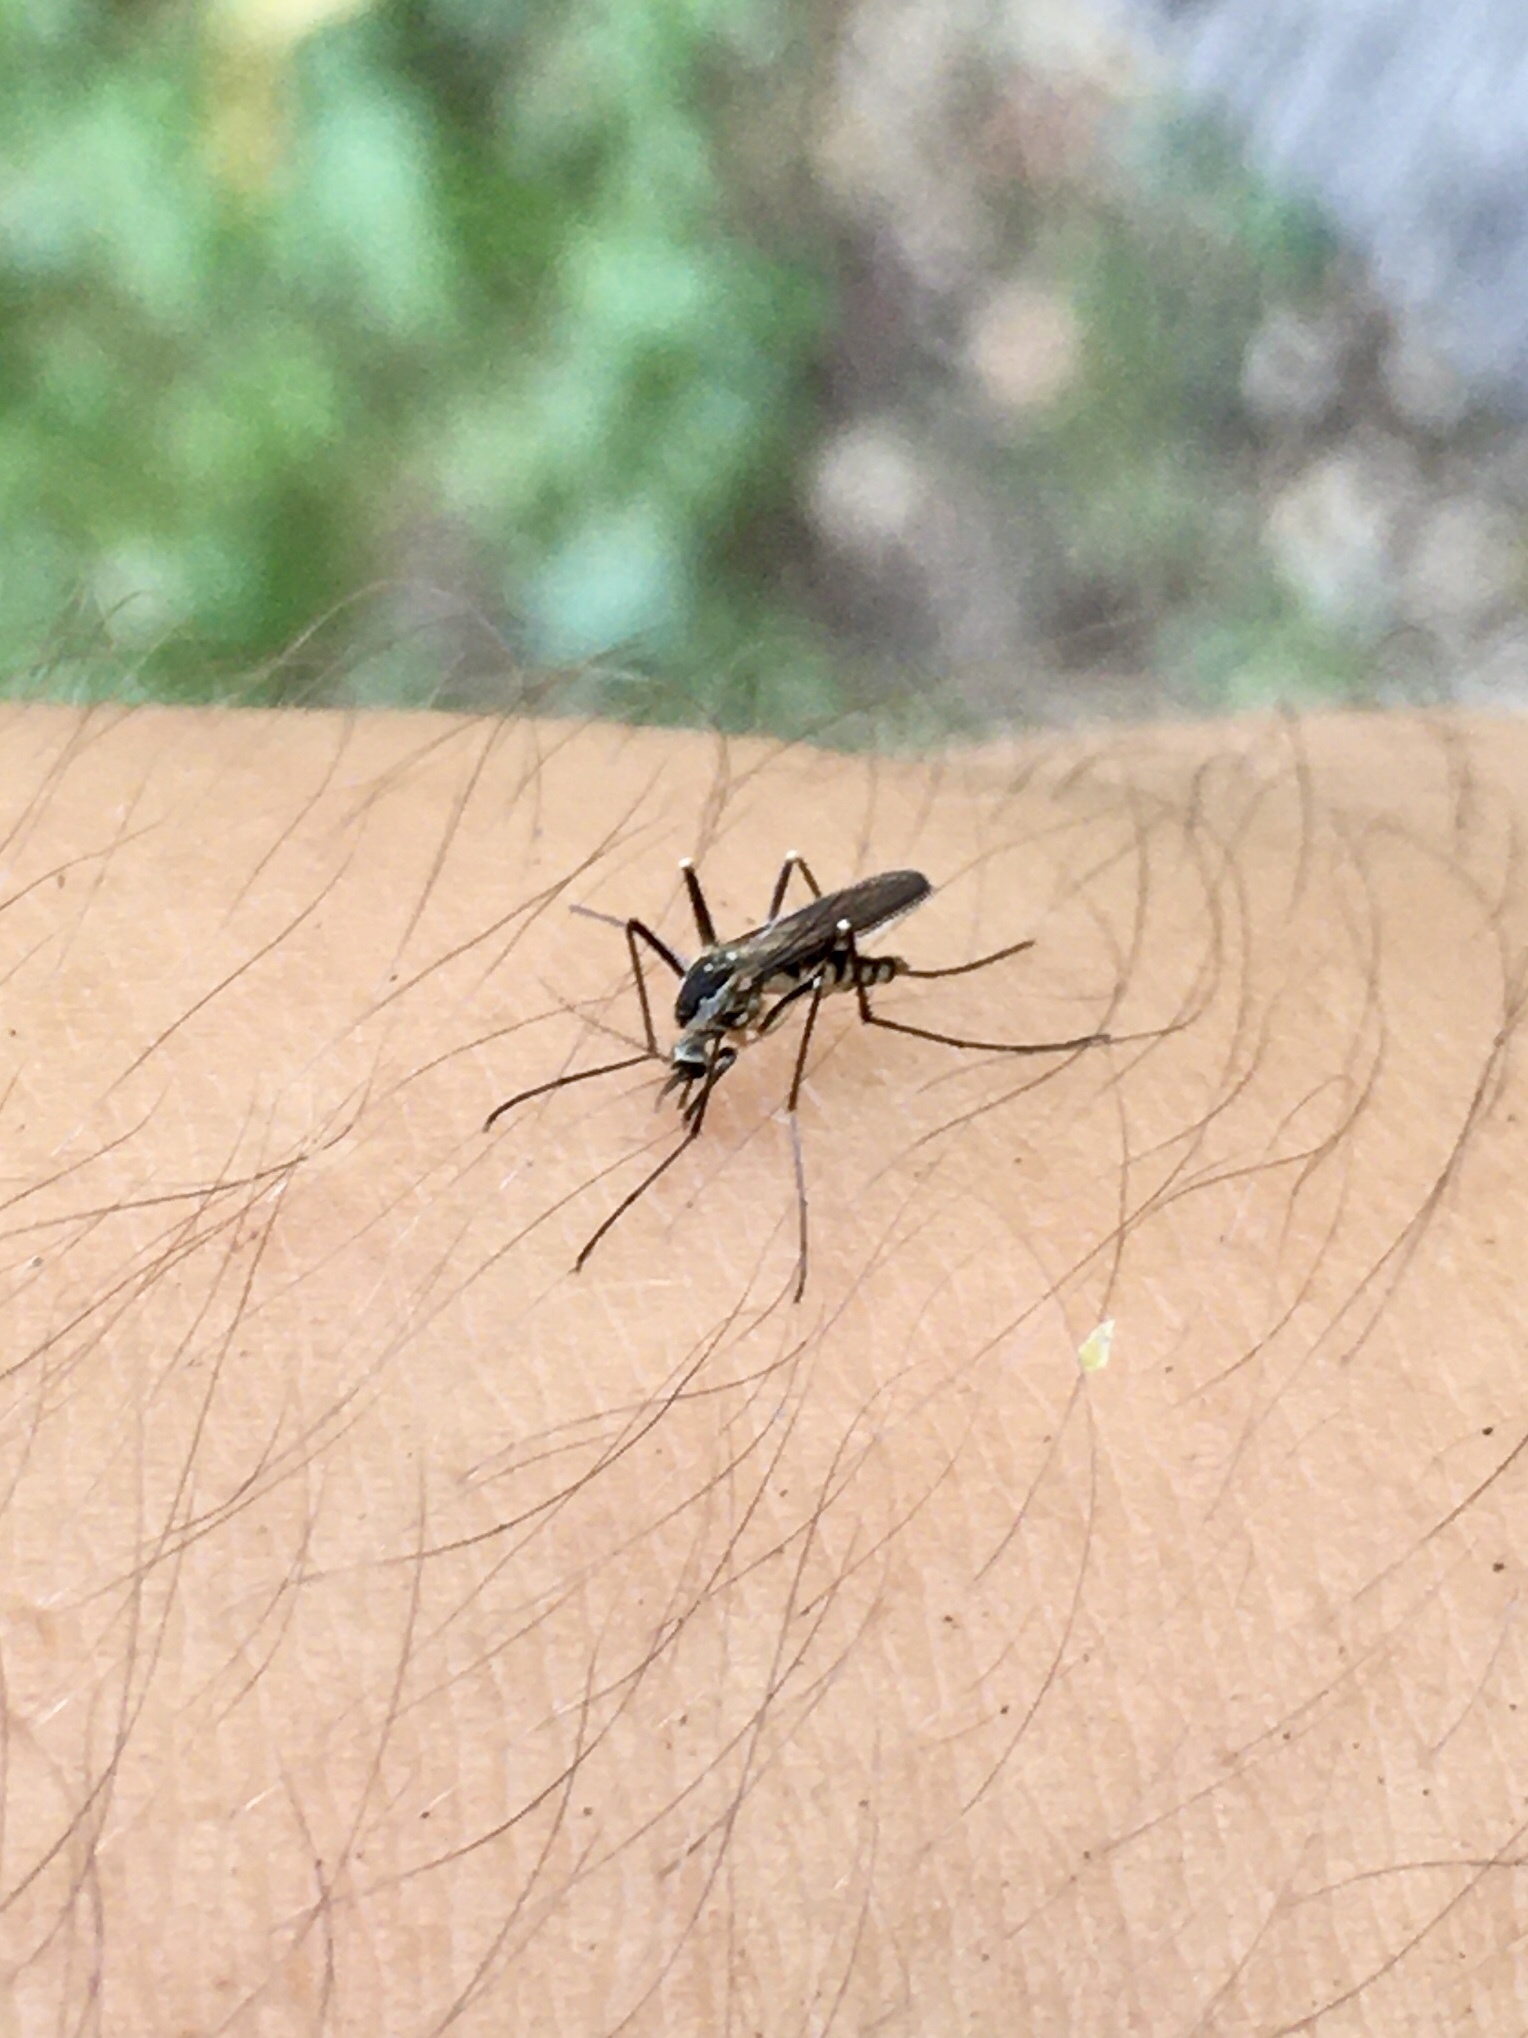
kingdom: Animalia
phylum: Arthropoda
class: Insecta
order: Diptera
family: Culicidae
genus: Aedes
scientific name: Aedes triseriatus
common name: Eastern treehole mosquito
